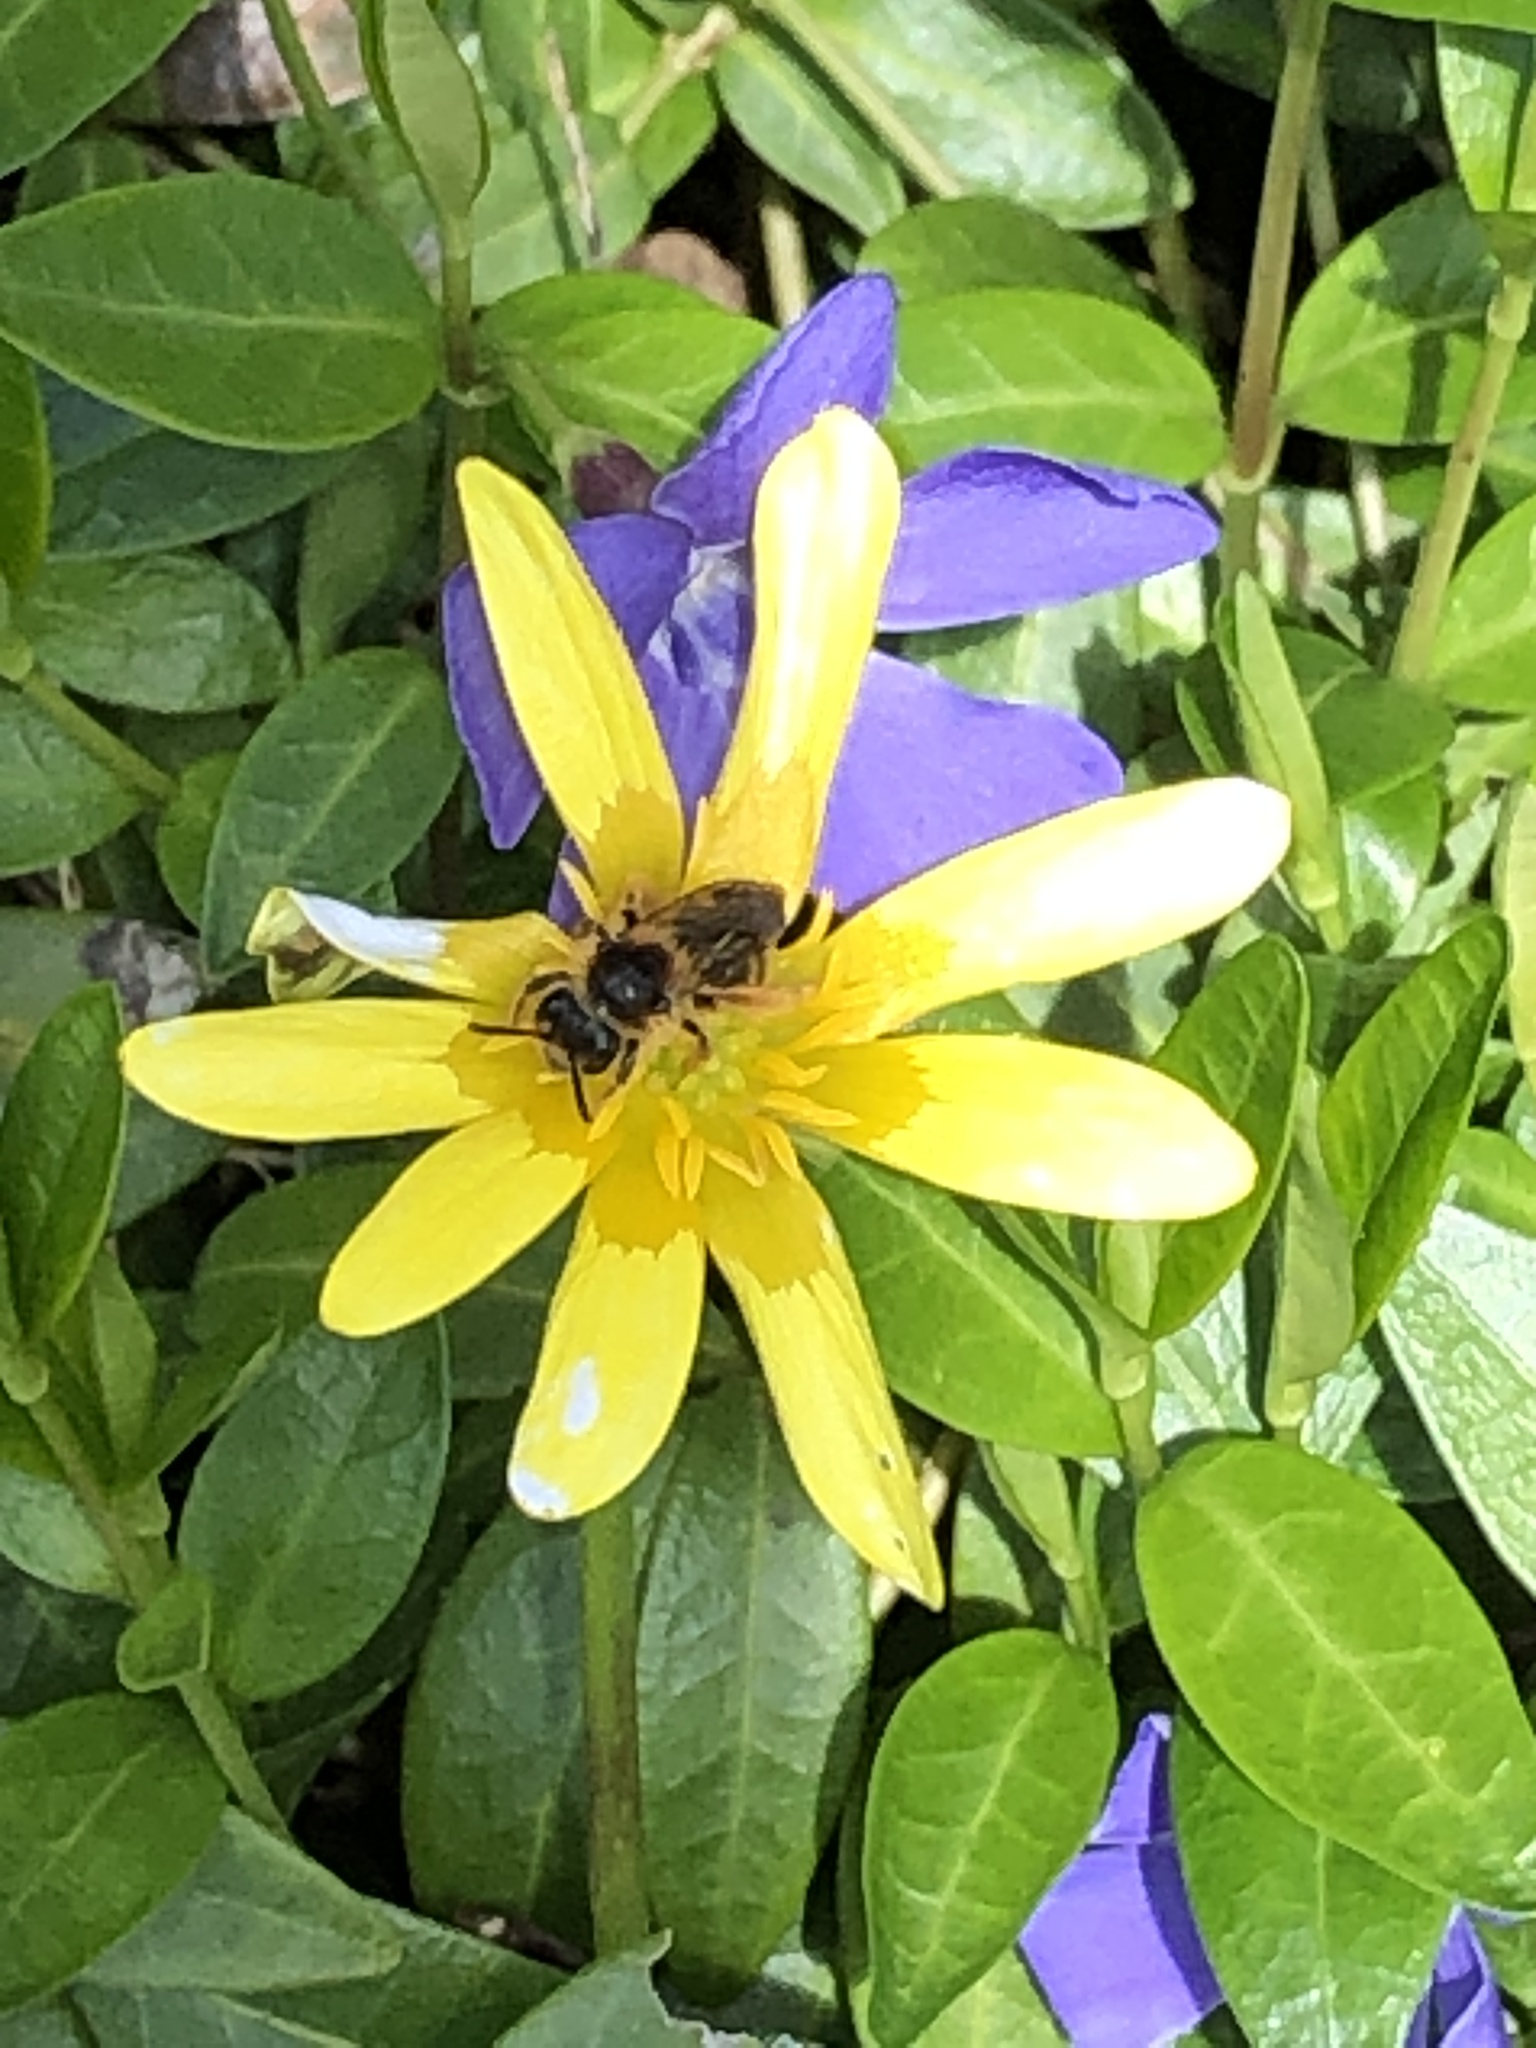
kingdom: Plantae
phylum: Tracheophyta
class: Magnoliopsida
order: Ranunculales
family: Ranunculaceae
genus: Ficaria
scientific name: Ficaria verna
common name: Lesser celandine
